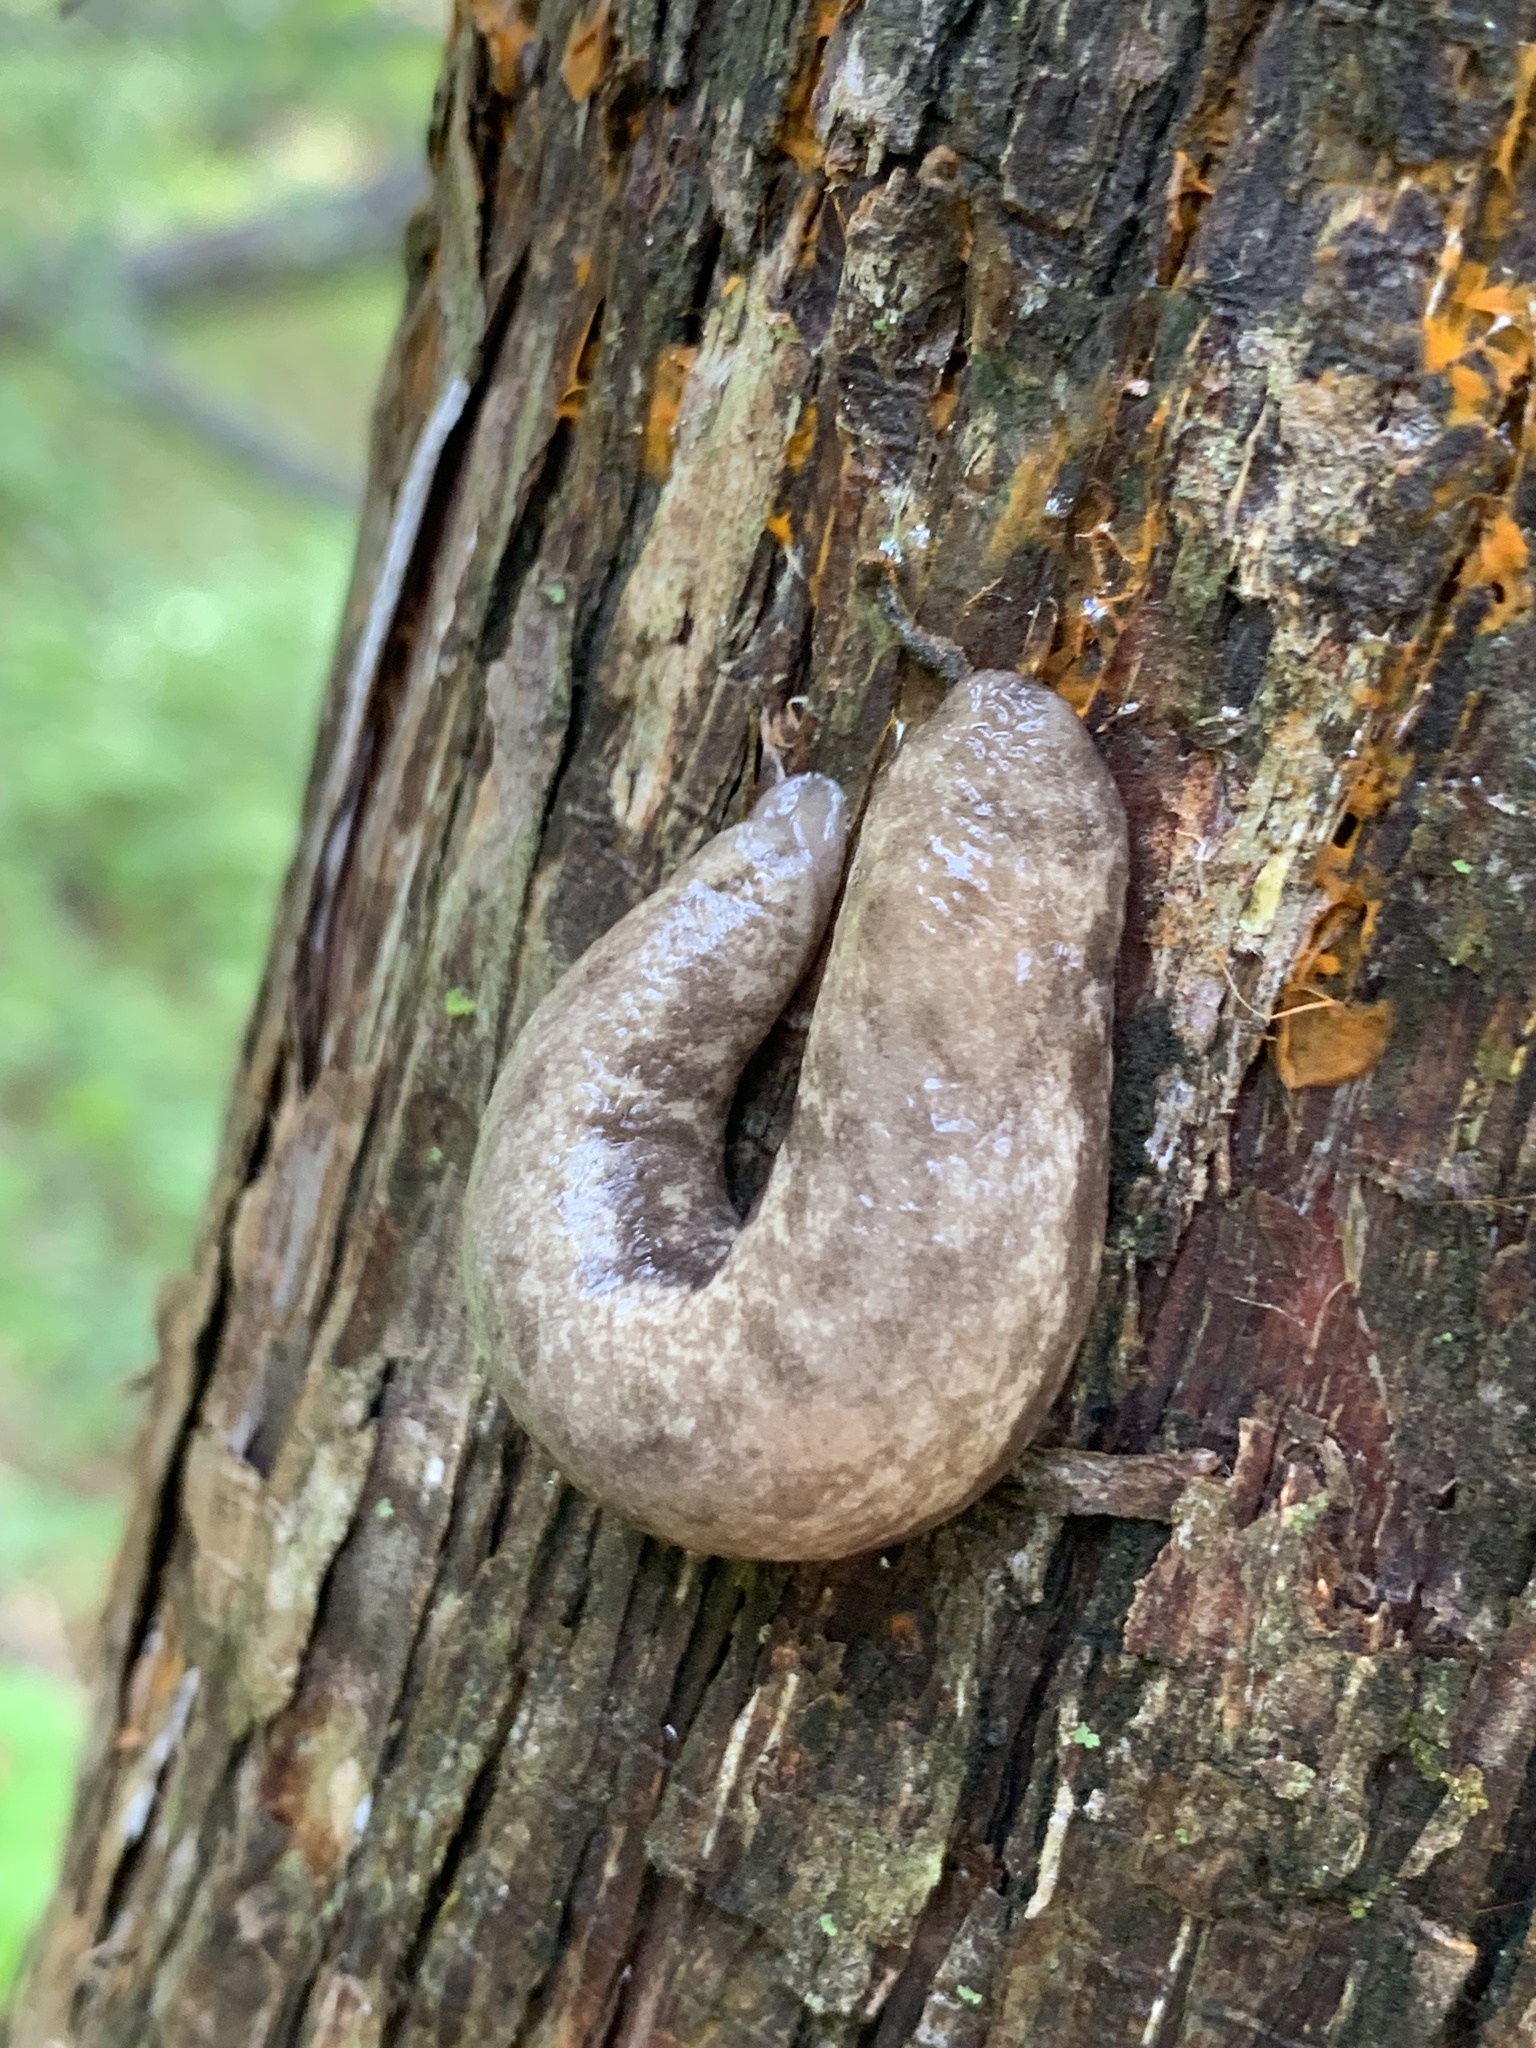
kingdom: Animalia
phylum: Mollusca
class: Gastropoda
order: Stylommatophora
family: Philomycidae
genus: Megapallifera
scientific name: Megapallifera mutabilis
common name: Changeable mantleslug
